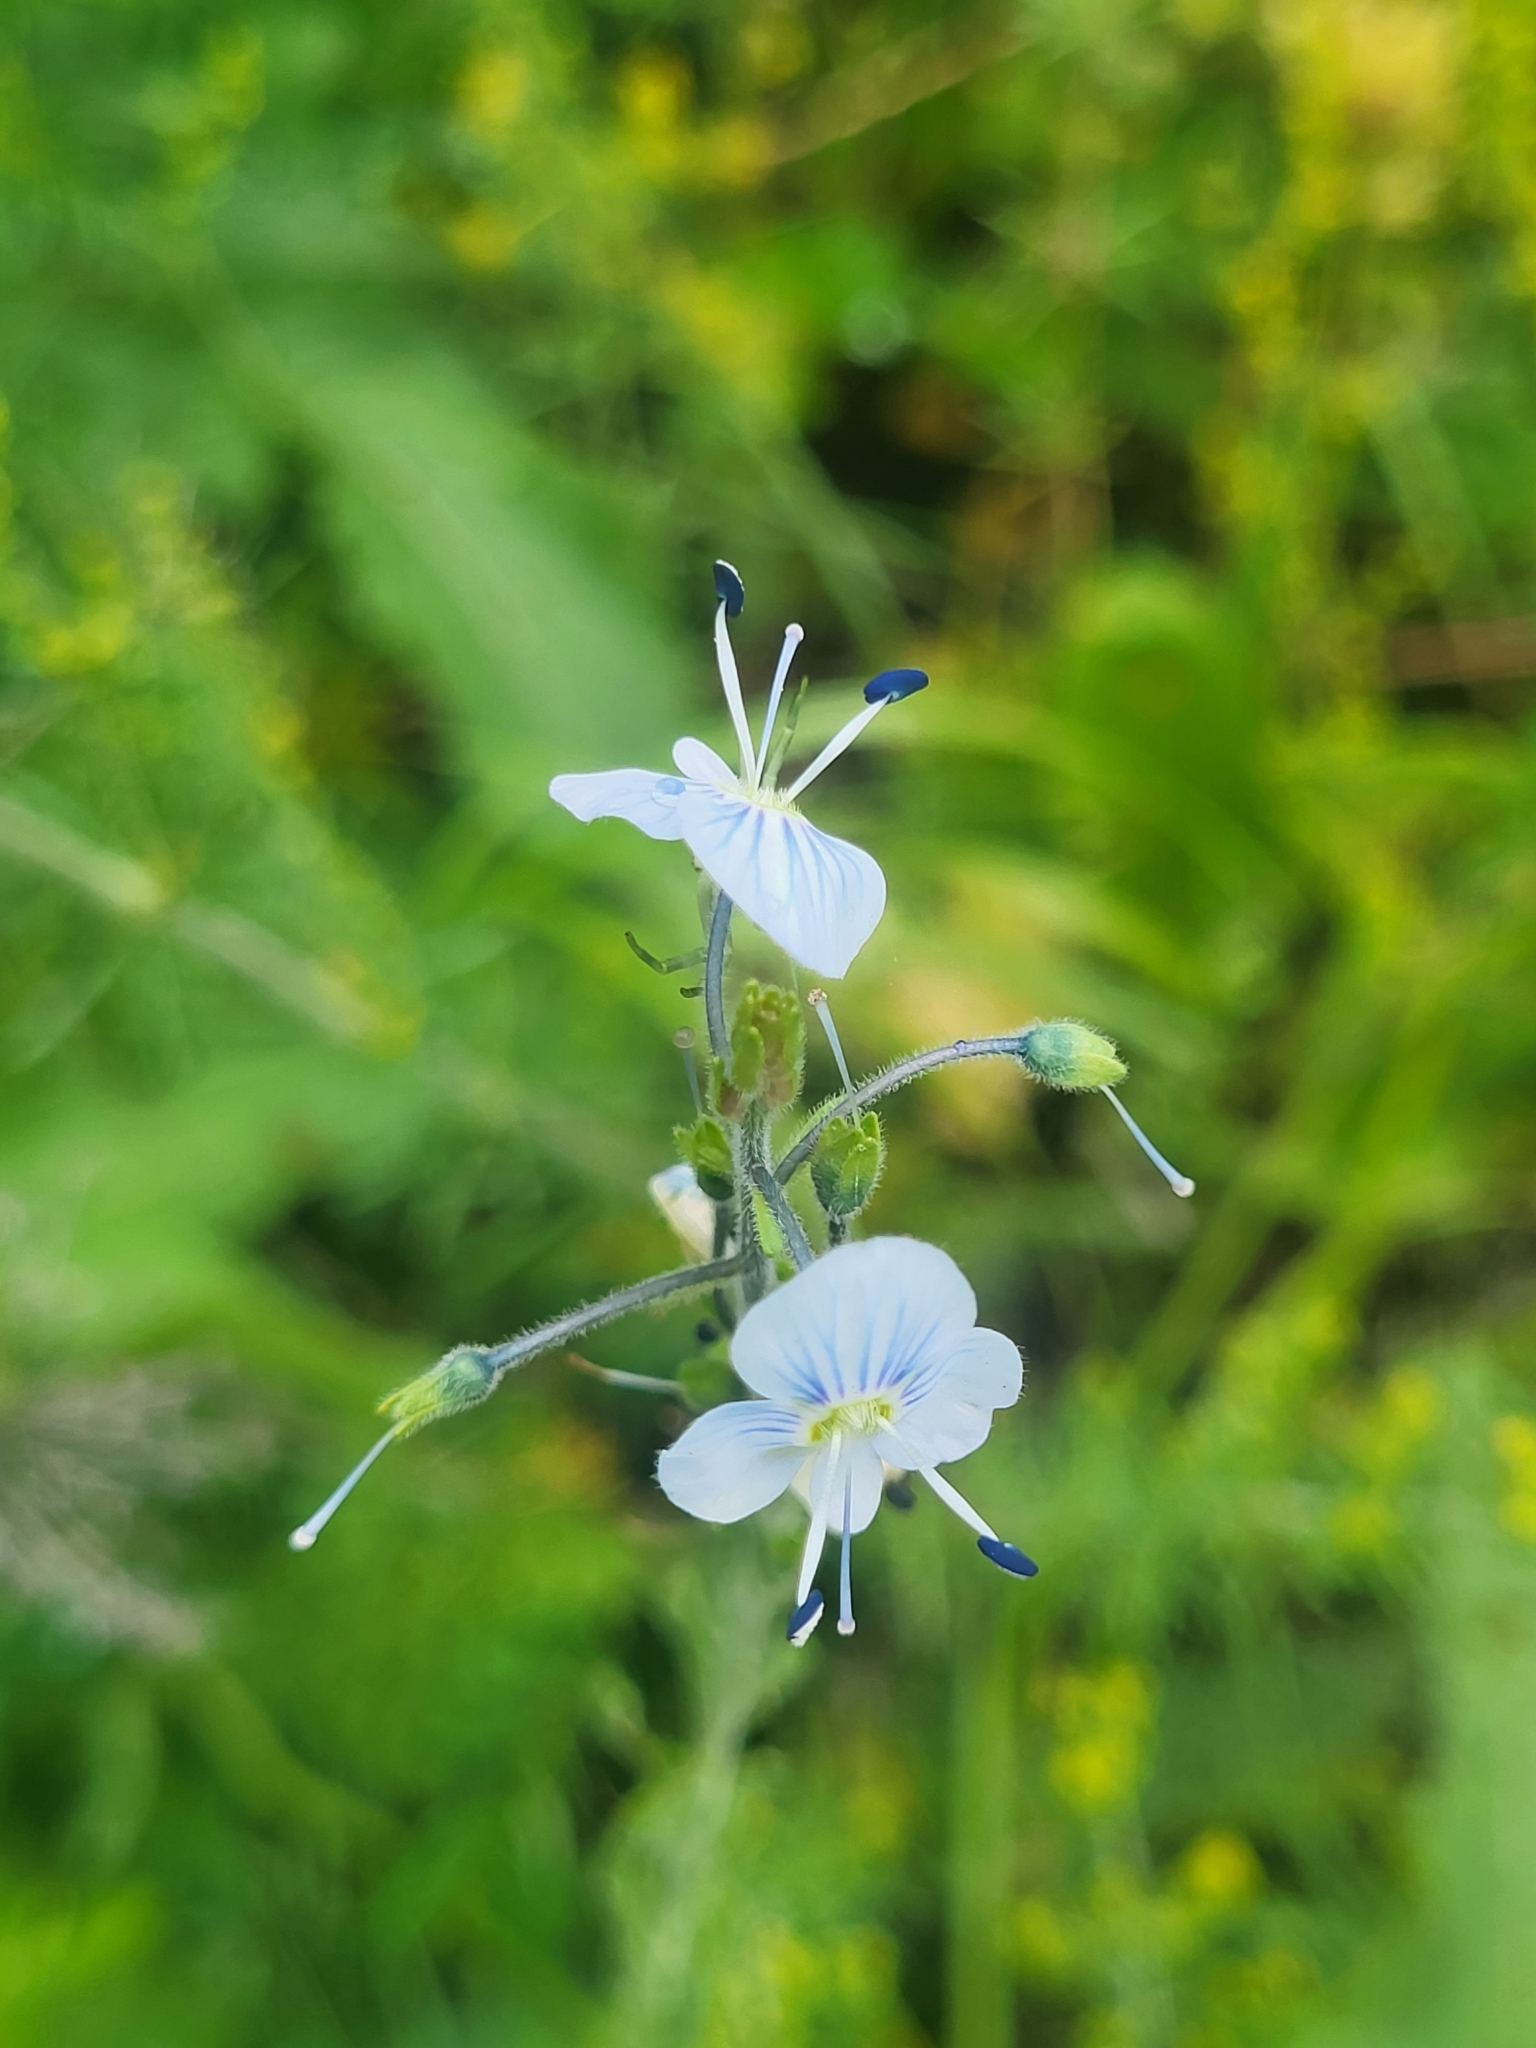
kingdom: Plantae
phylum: Tracheophyta
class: Magnoliopsida
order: Lamiales
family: Plantaginaceae
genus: Veronica
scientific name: Veronica gentianoides
